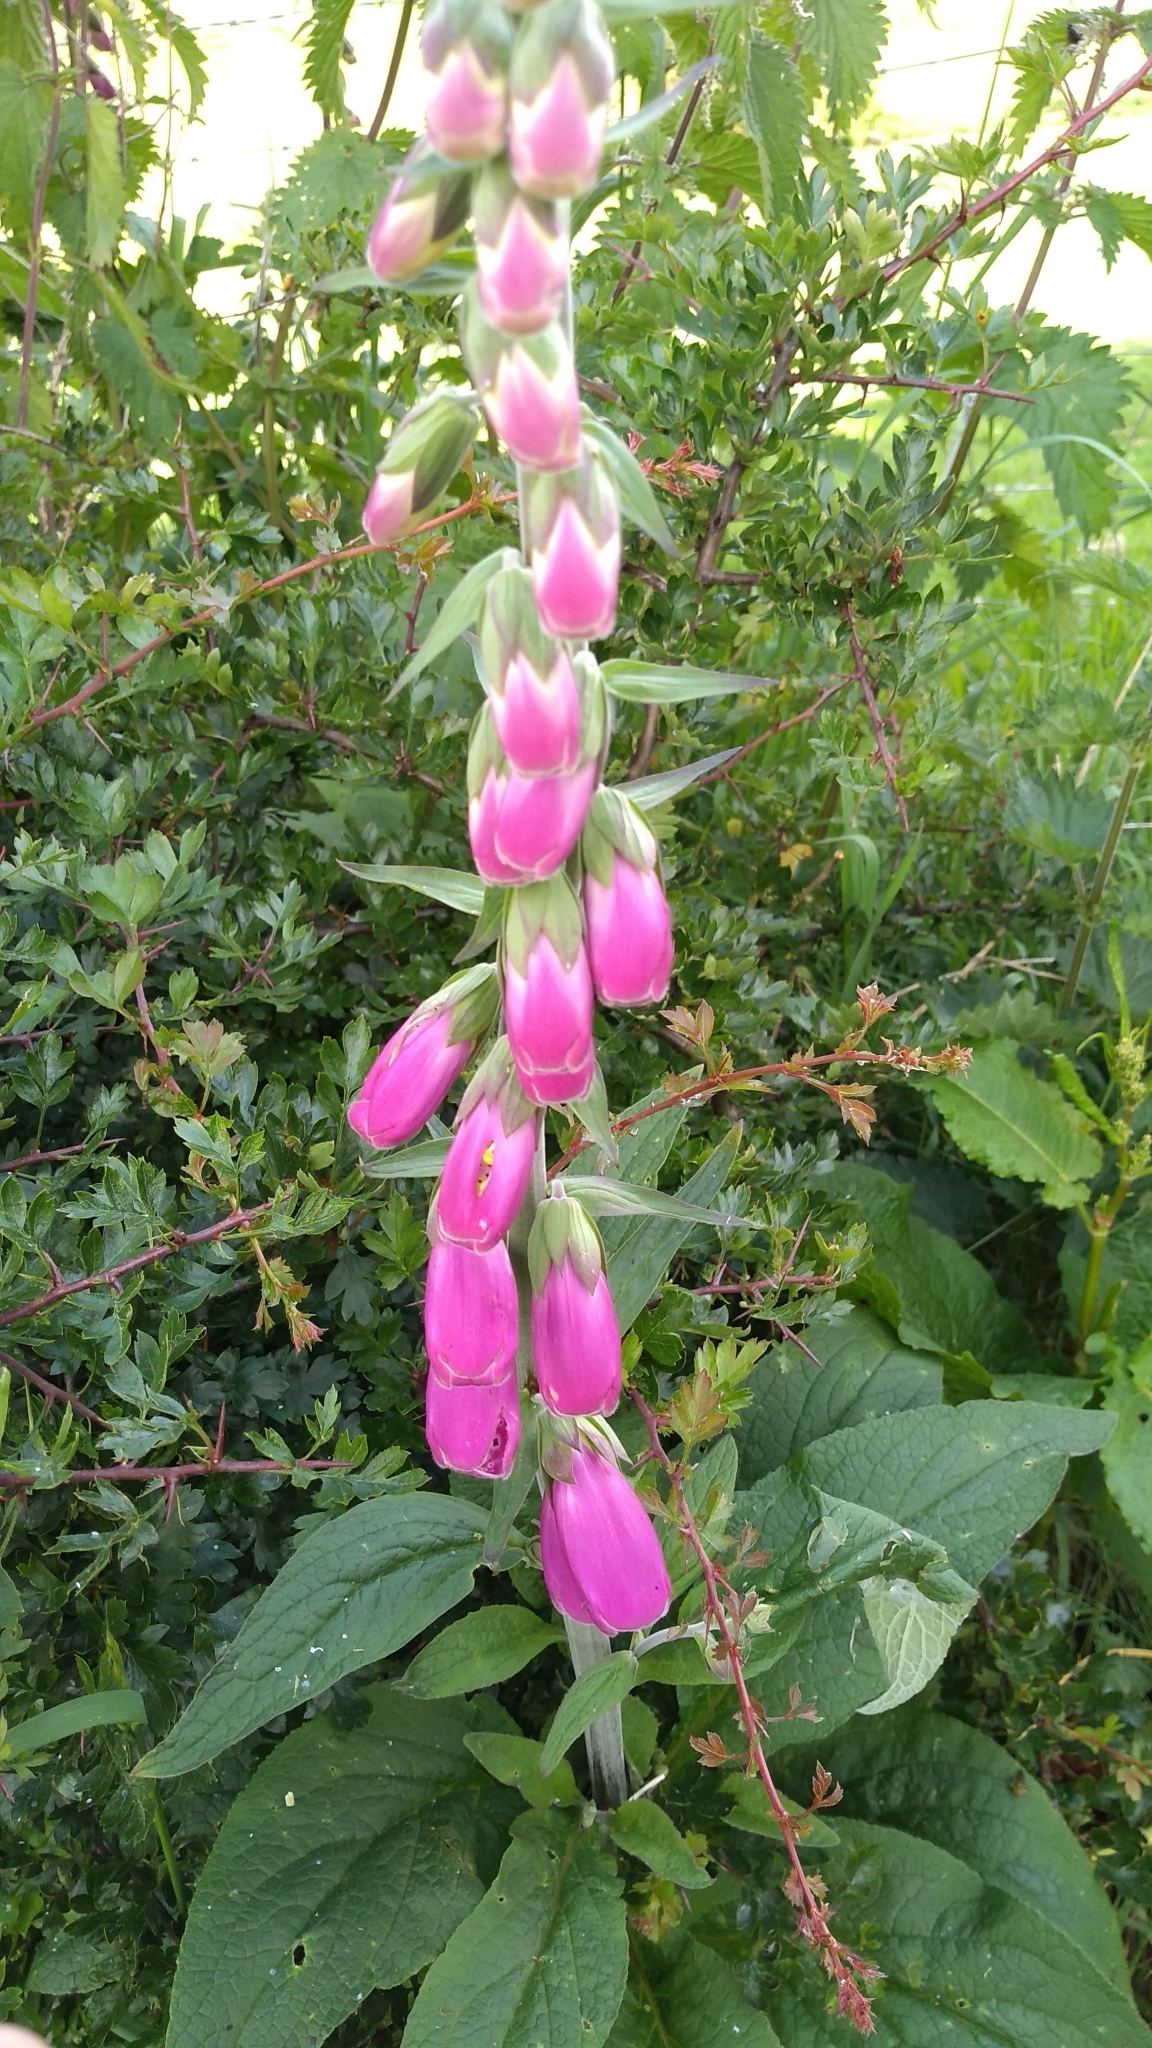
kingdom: Plantae
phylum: Tracheophyta
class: Magnoliopsida
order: Lamiales
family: Plantaginaceae
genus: Digitalis
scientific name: Digitalis purpurea
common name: Foxglove
